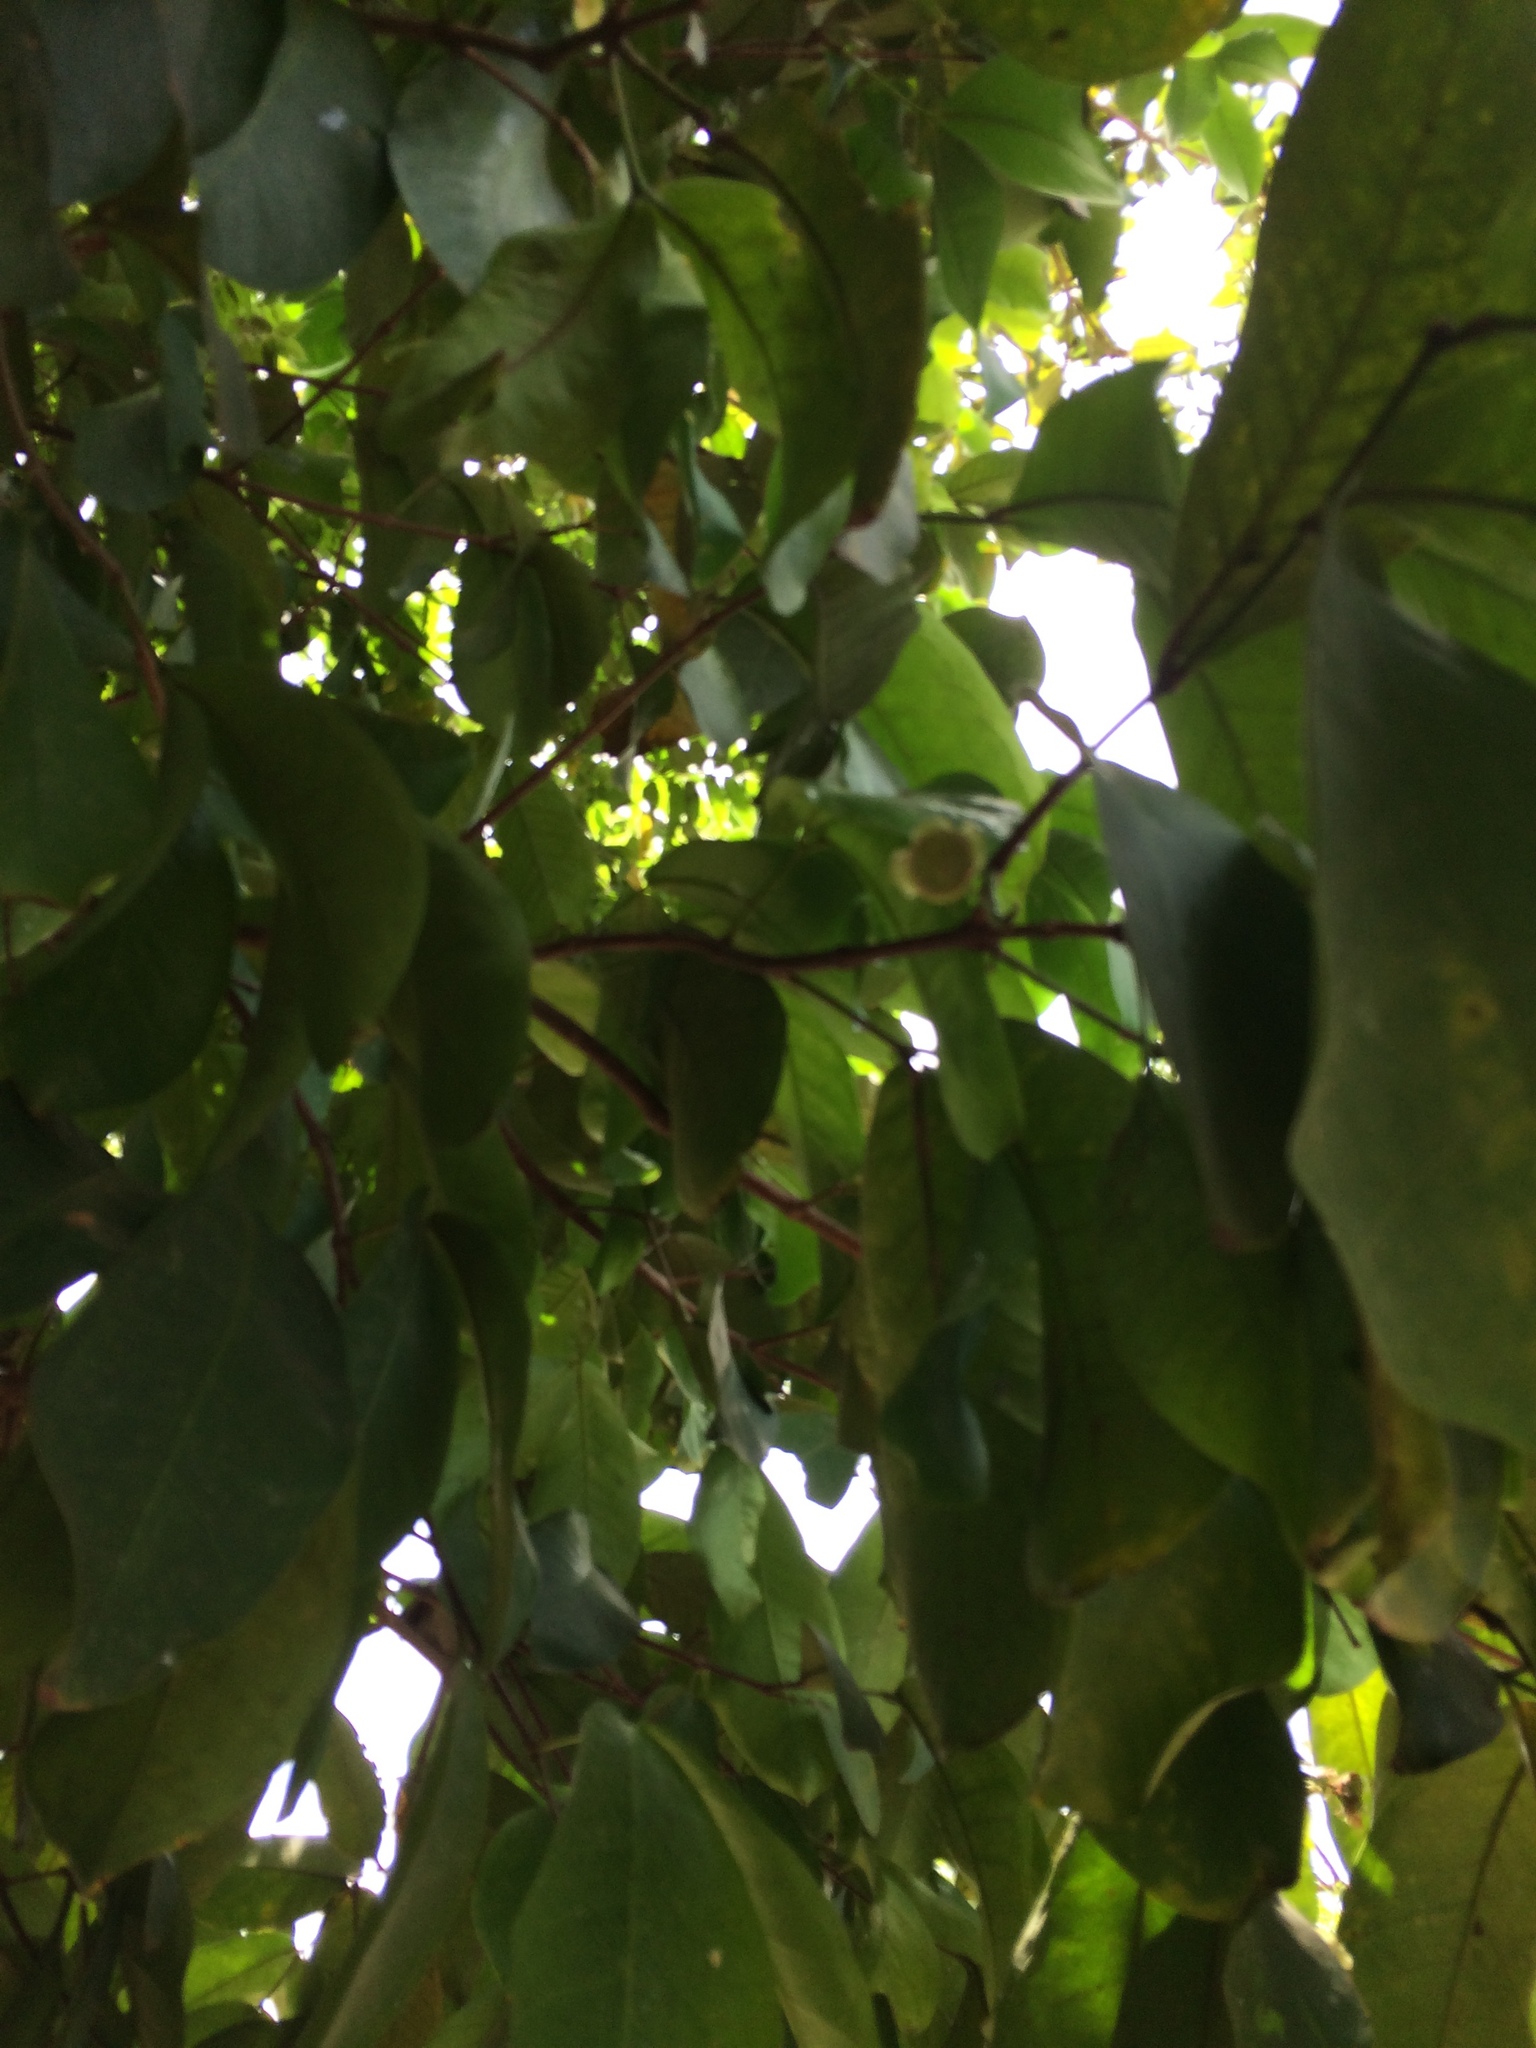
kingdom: Plantae
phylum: Tracheophyta
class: Magnoliopsida
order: Myrtales
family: Myrtaceae
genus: Syzygium
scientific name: Syzygium samarangense
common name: Semarang rose-apple
